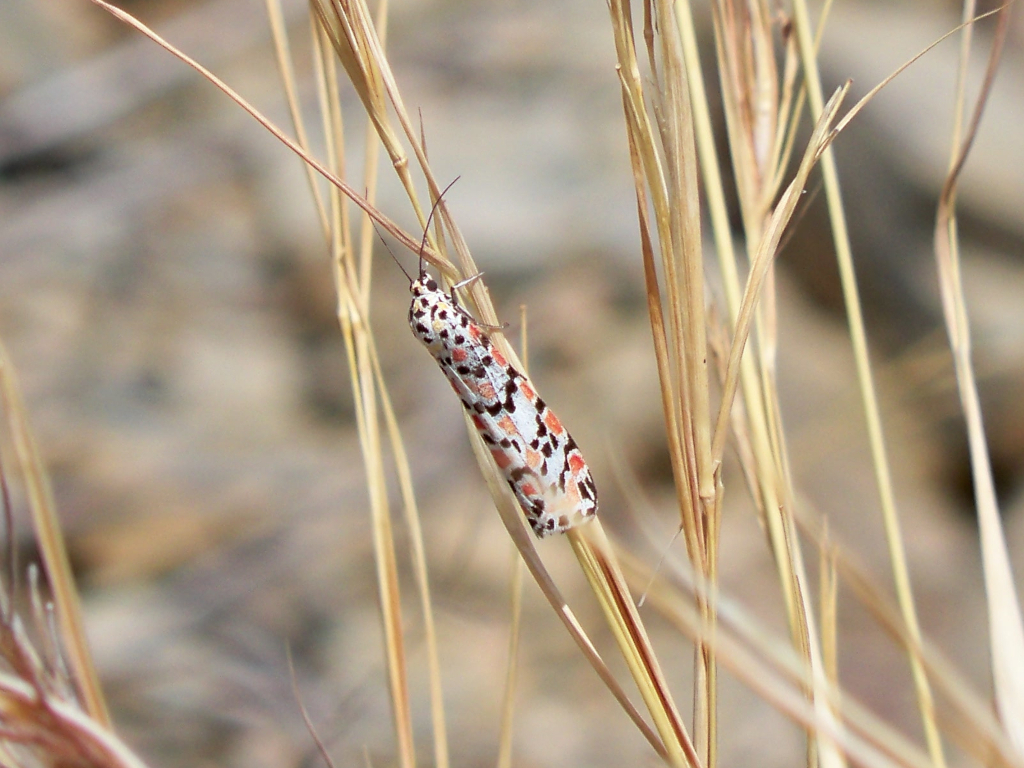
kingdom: Animalia
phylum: Arthropoda
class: Insecta
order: Lepidoptera
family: Erebidae
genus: Utetheisa
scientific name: Utetheisa pulchella
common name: Crimson speckled
